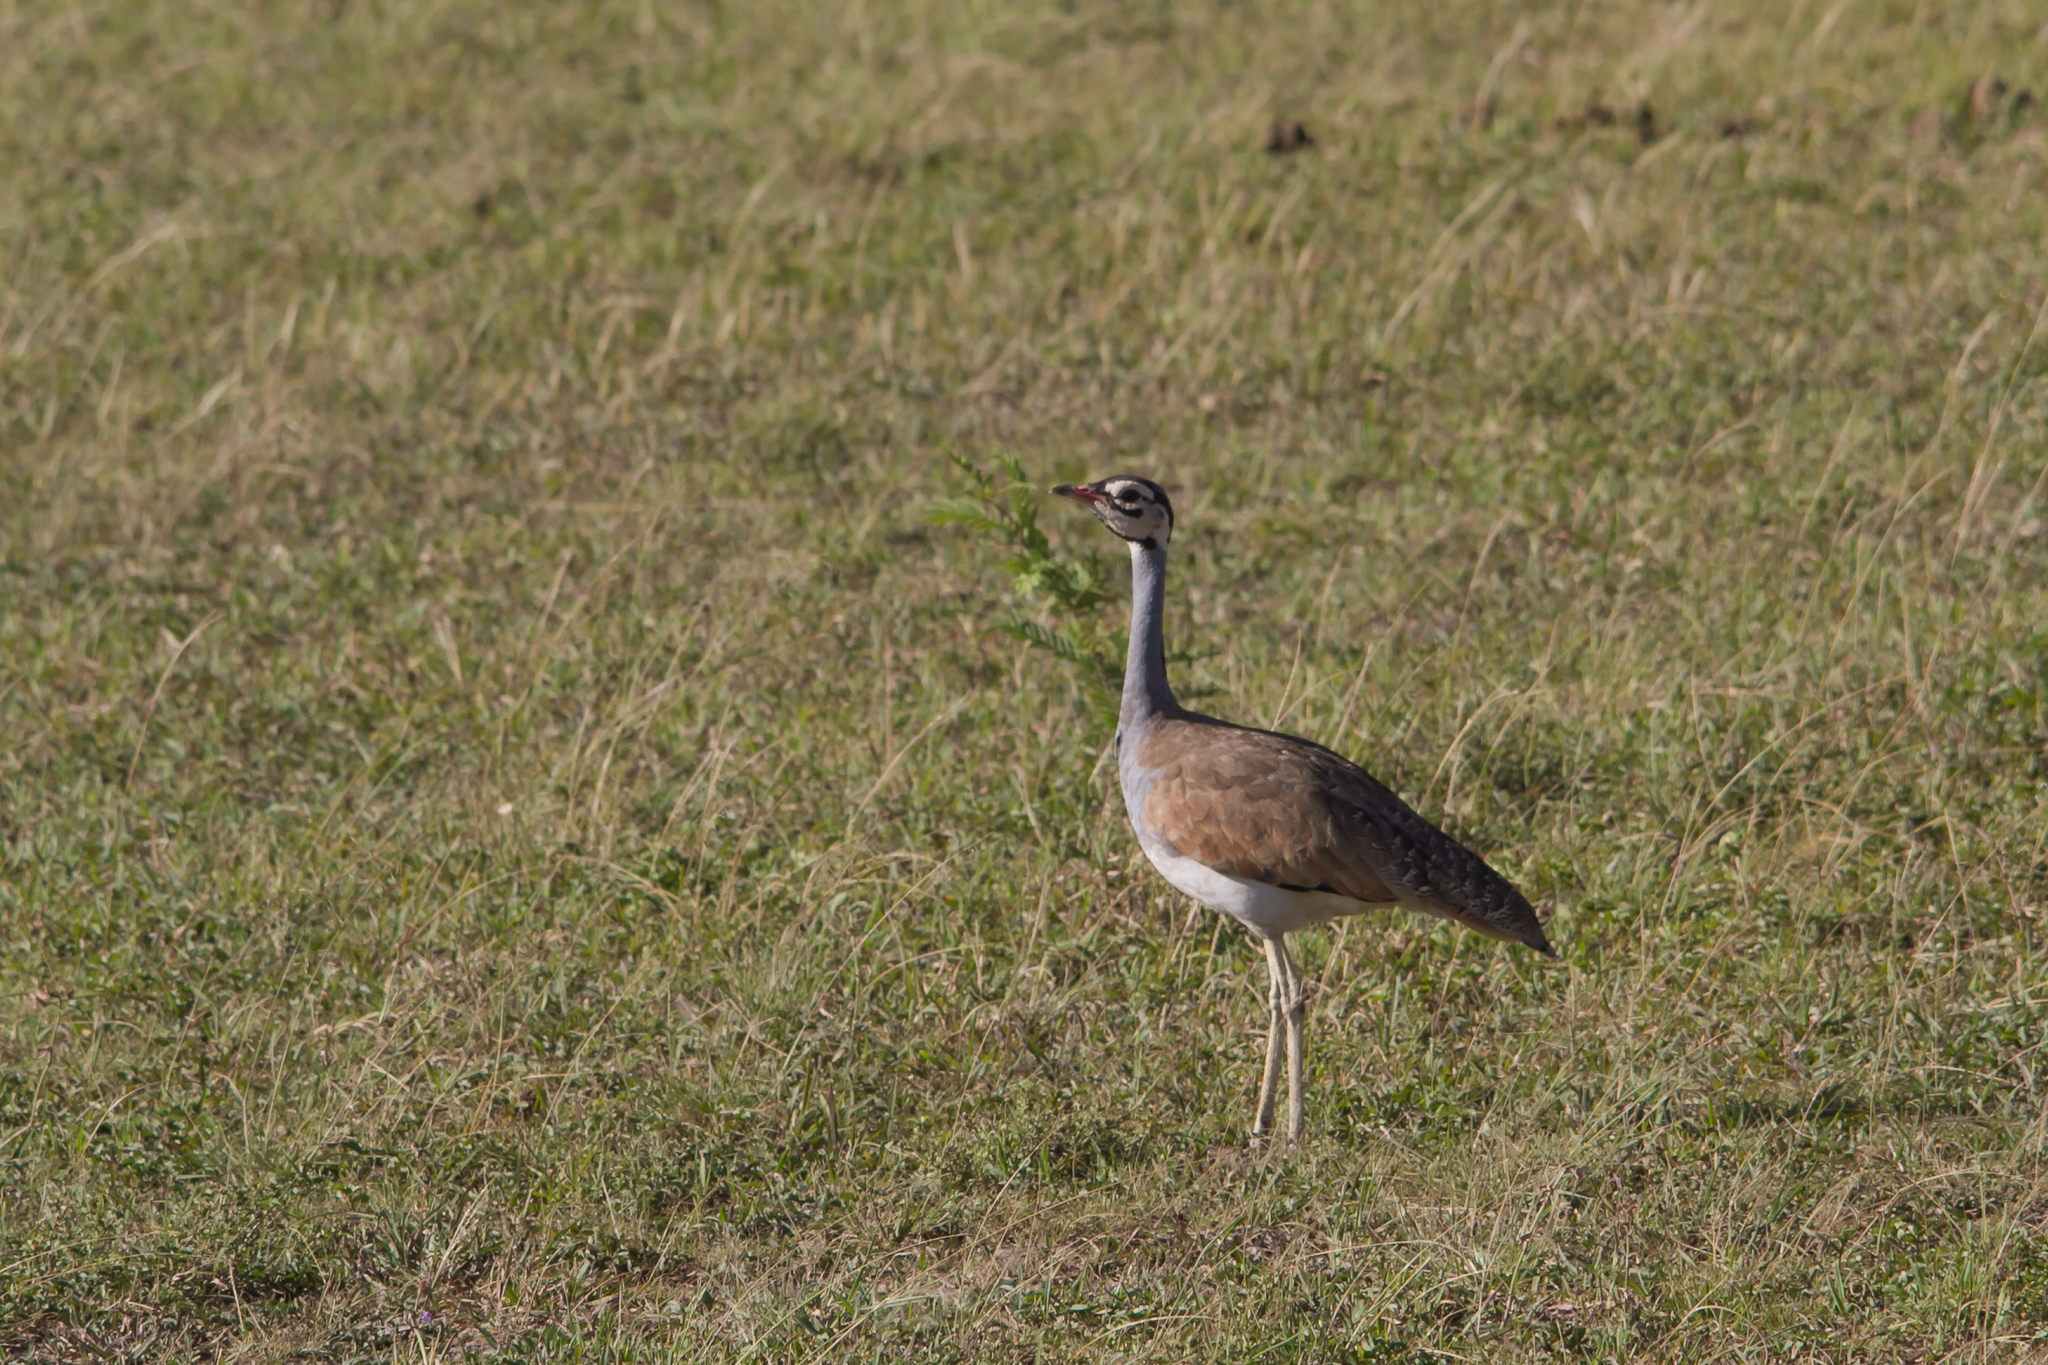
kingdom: Animalia
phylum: Chordata
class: Aves
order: Otidiformes
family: Otididae
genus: Eupodotis
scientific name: Eupodotis senegalensis
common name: White-bellied bustard
